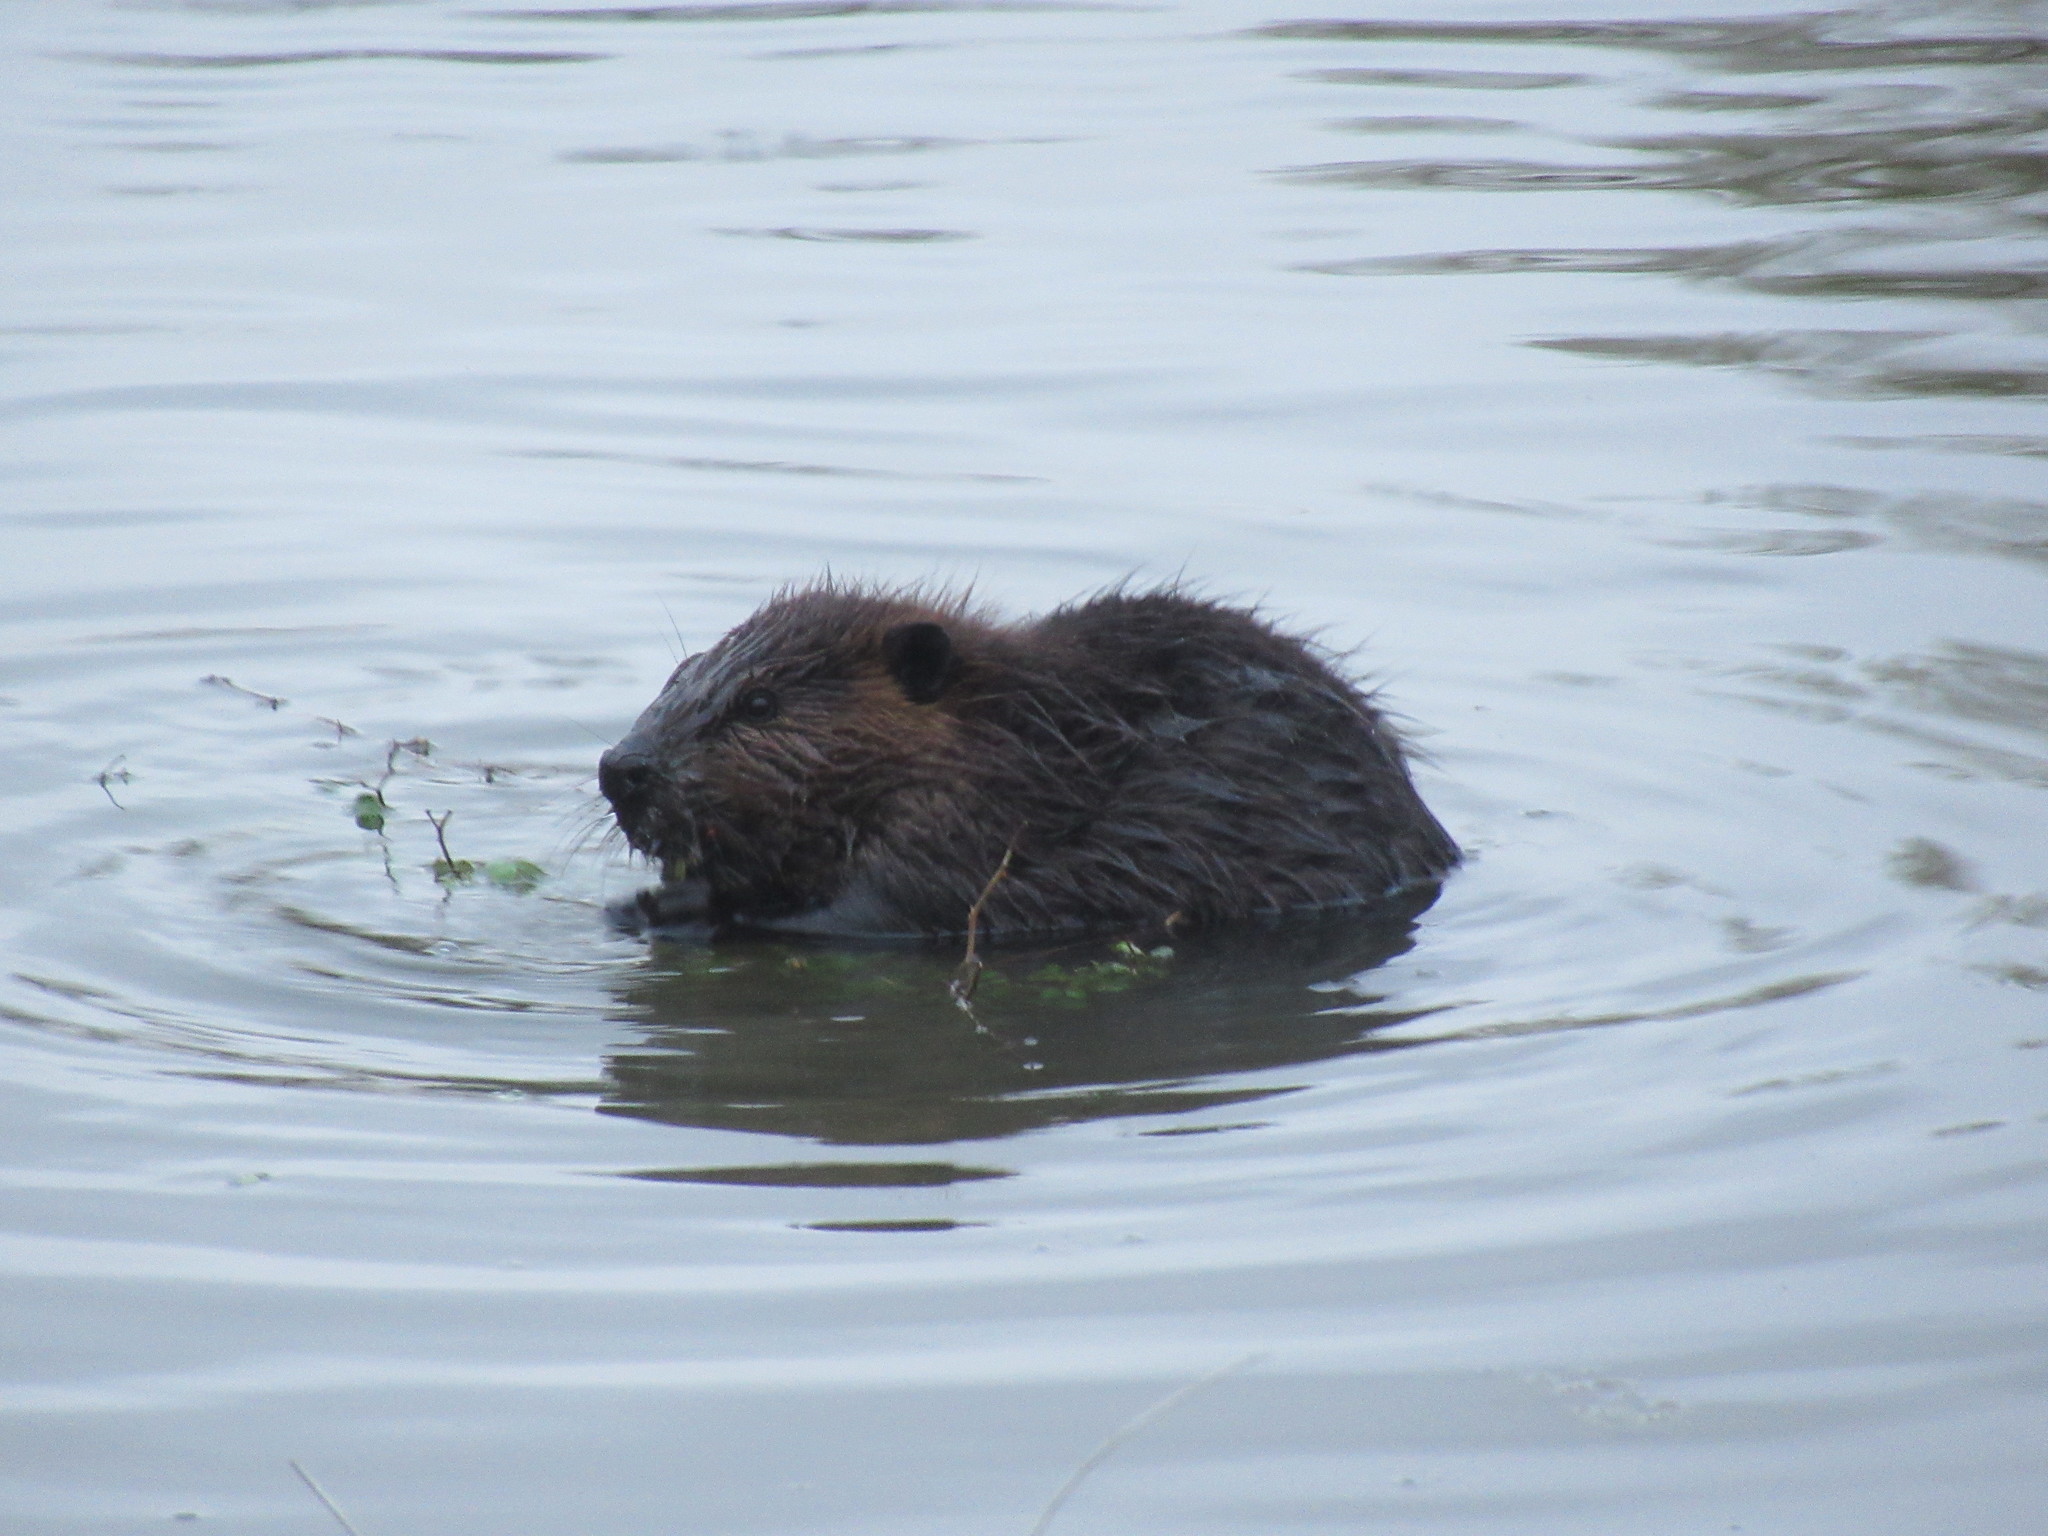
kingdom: Animalia
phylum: Chordata
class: Mammalia
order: Rodentia
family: Castoridae
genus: Castor
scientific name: Castor canadensis
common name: American beaver
